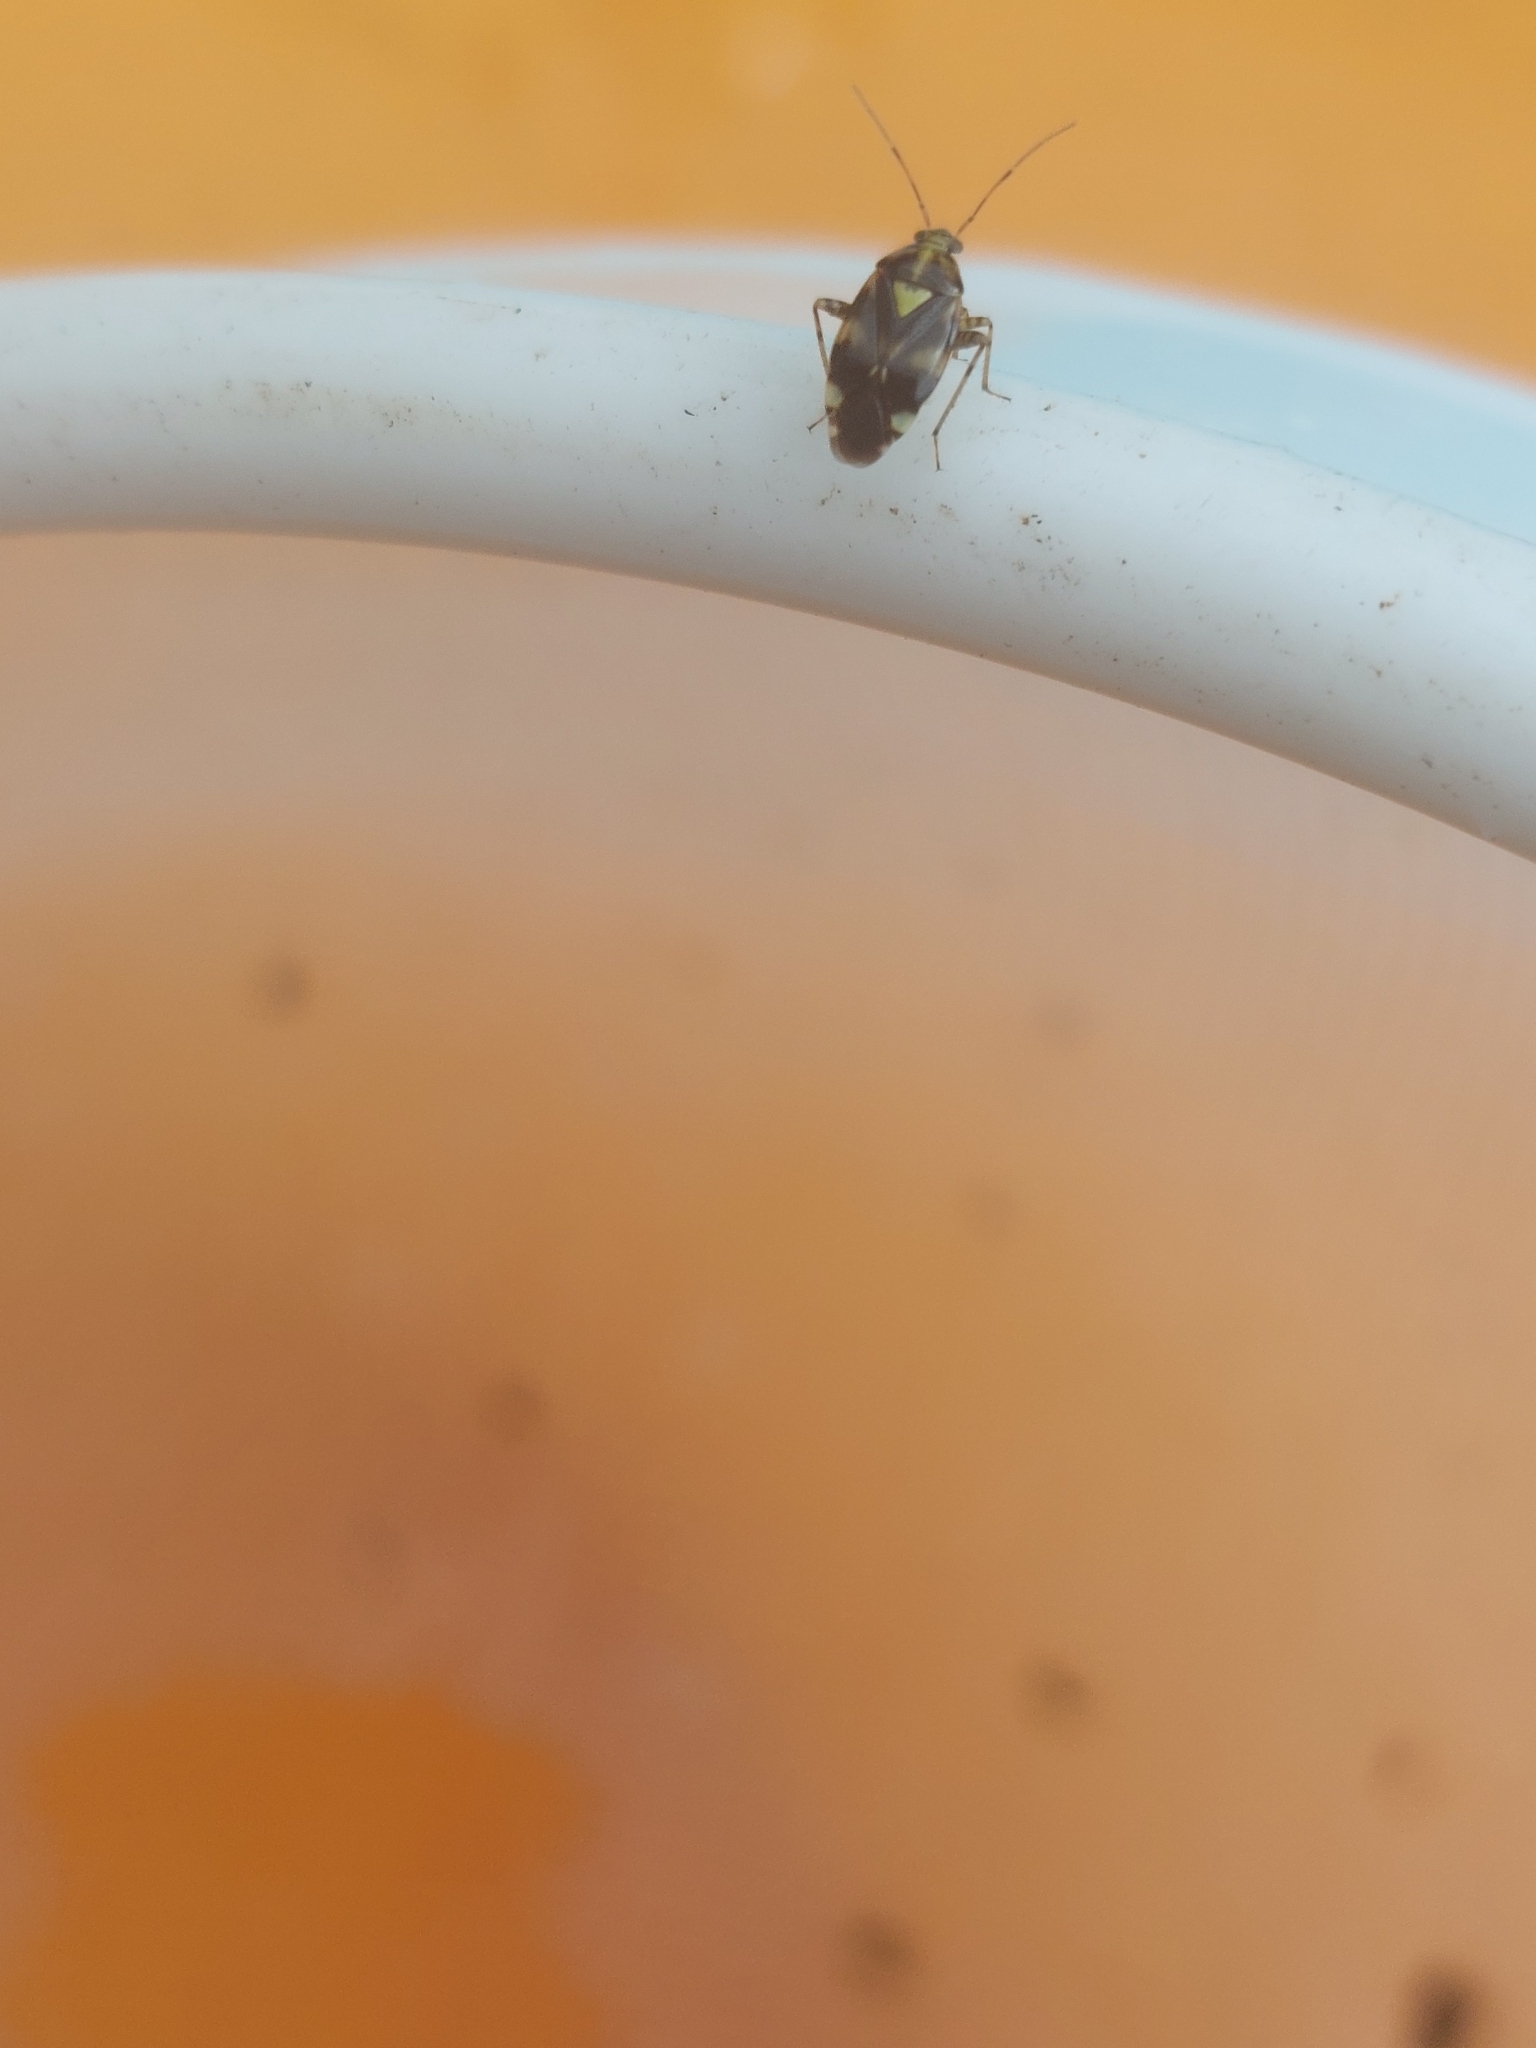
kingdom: Animalia
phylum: Arthropoda
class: Insecta
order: Hemiptera
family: Miridae
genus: Liocoris
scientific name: Liocoris tripustulatus
